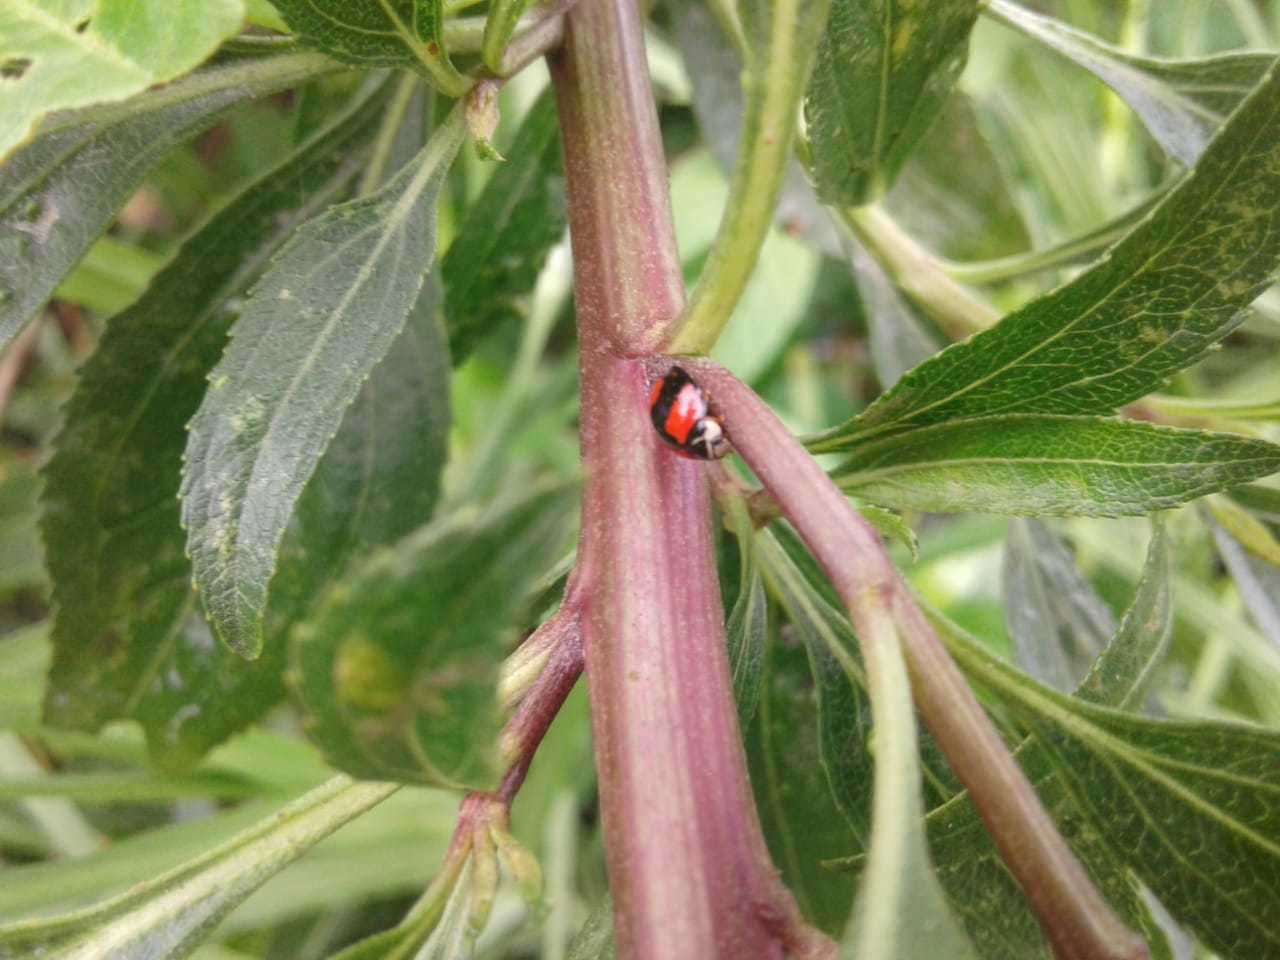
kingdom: Animalia
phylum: Arthropoda
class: Insecta
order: Coleoptera
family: Coccinellidae
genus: Cheilomenes
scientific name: Cheilomenes sexmaculata
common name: Ladybird beetle
